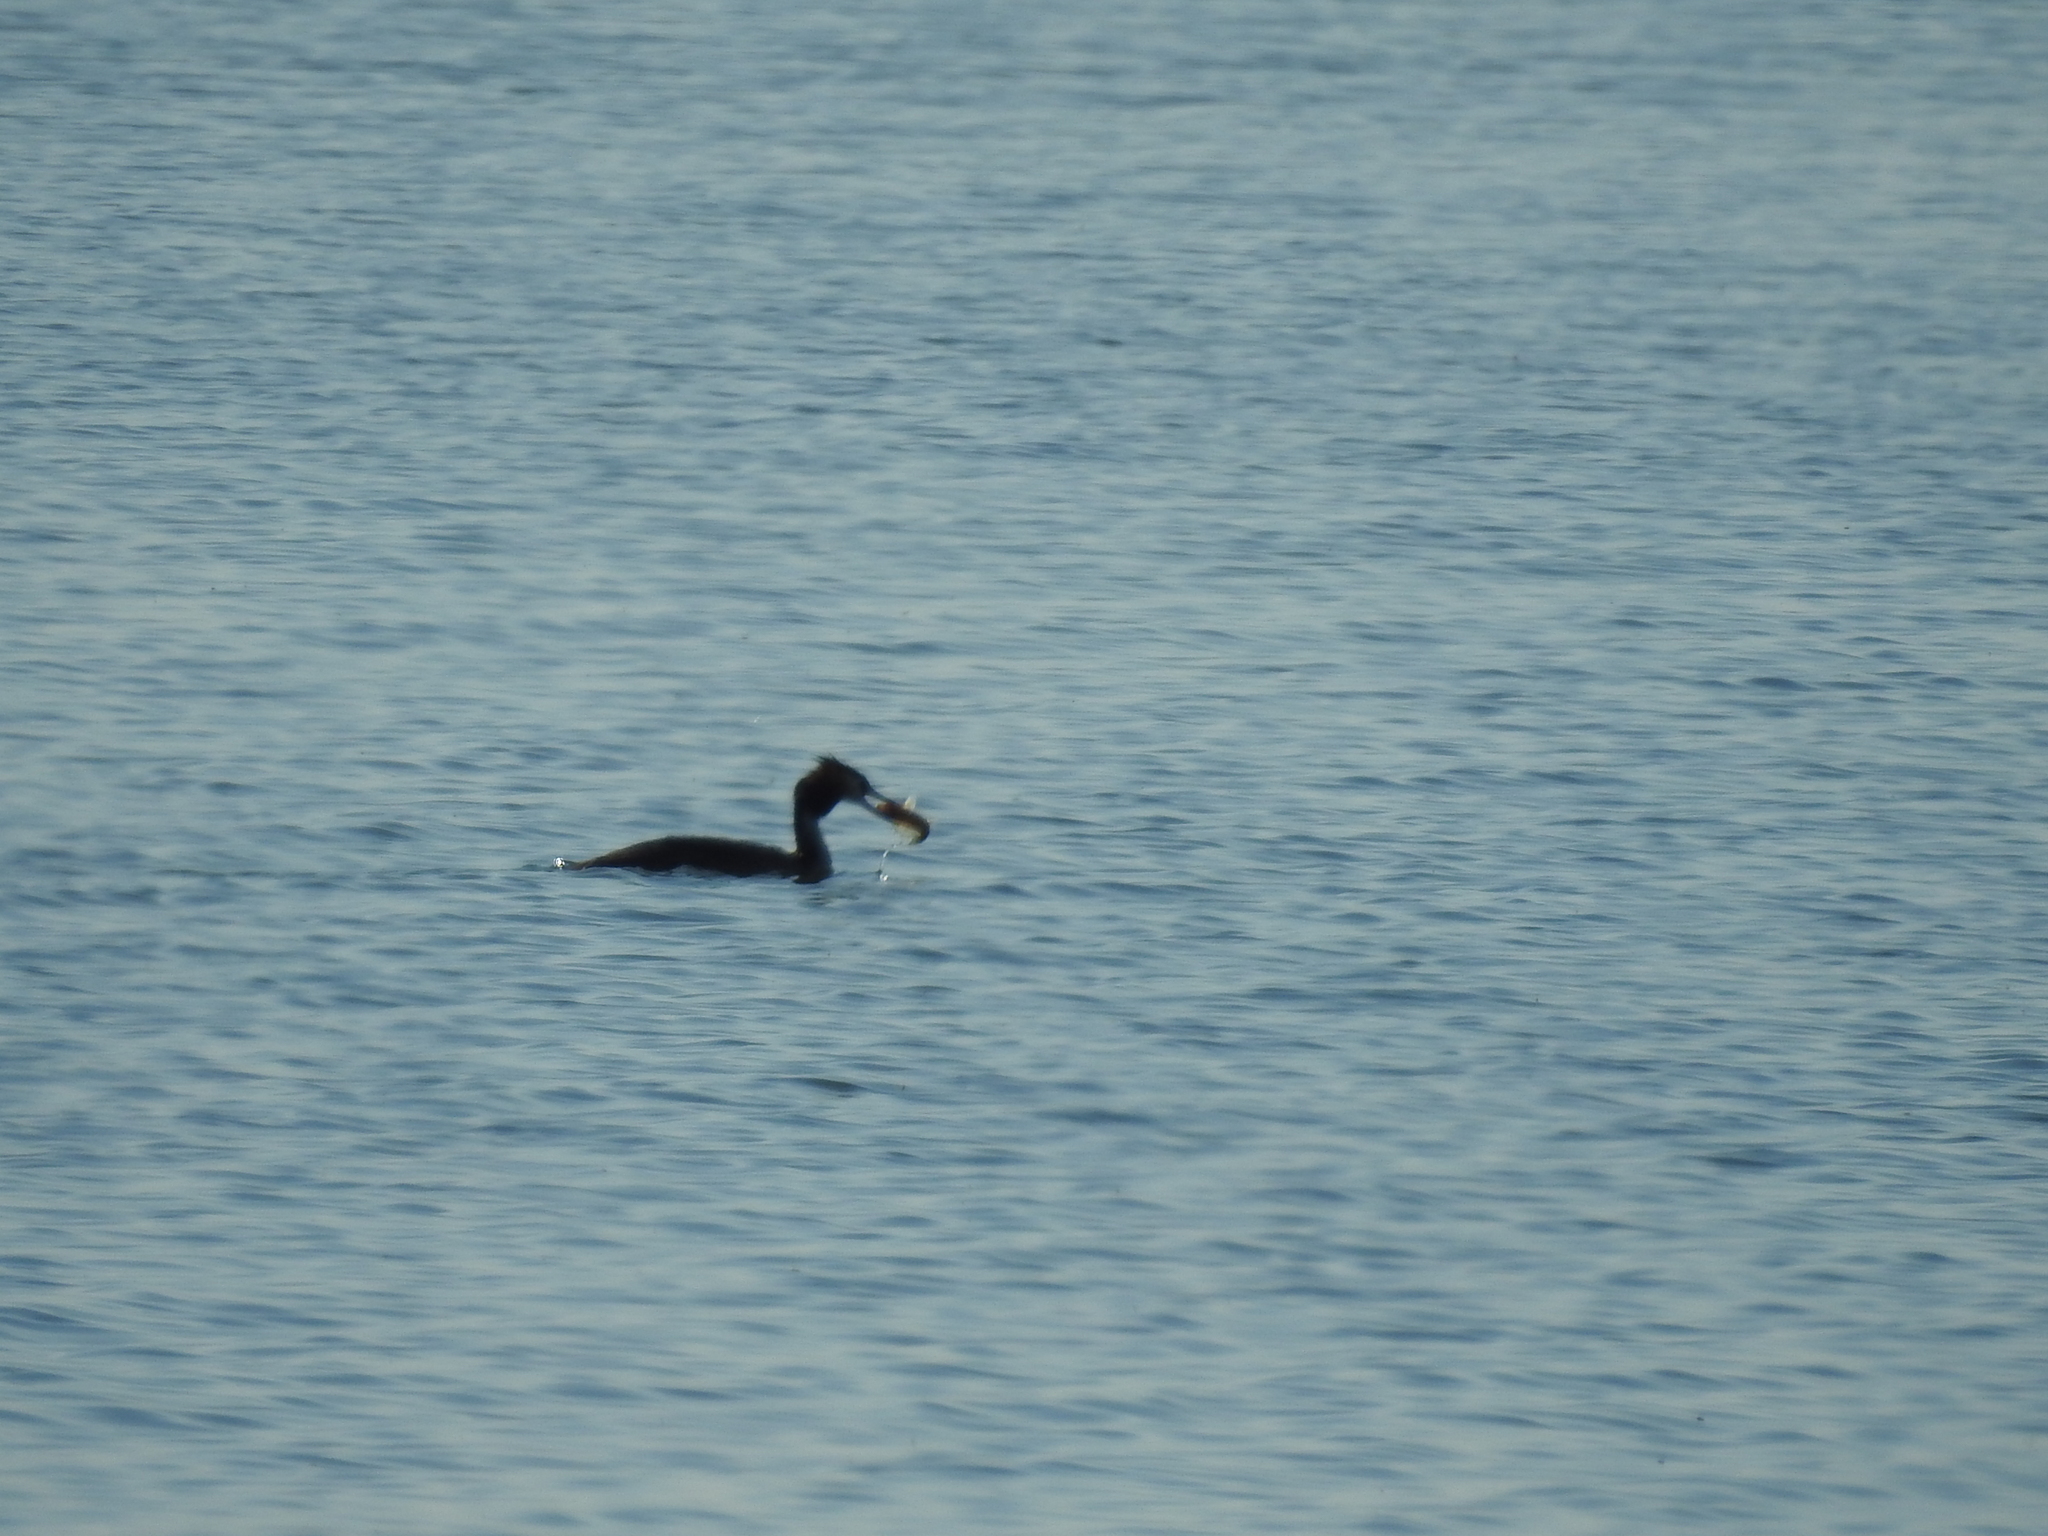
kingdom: Animalia
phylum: Chordata
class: Aves
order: Podicipediformes
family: Podicipedidae
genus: Podiceps
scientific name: Podiceps cristatus
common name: Great crested grebe
